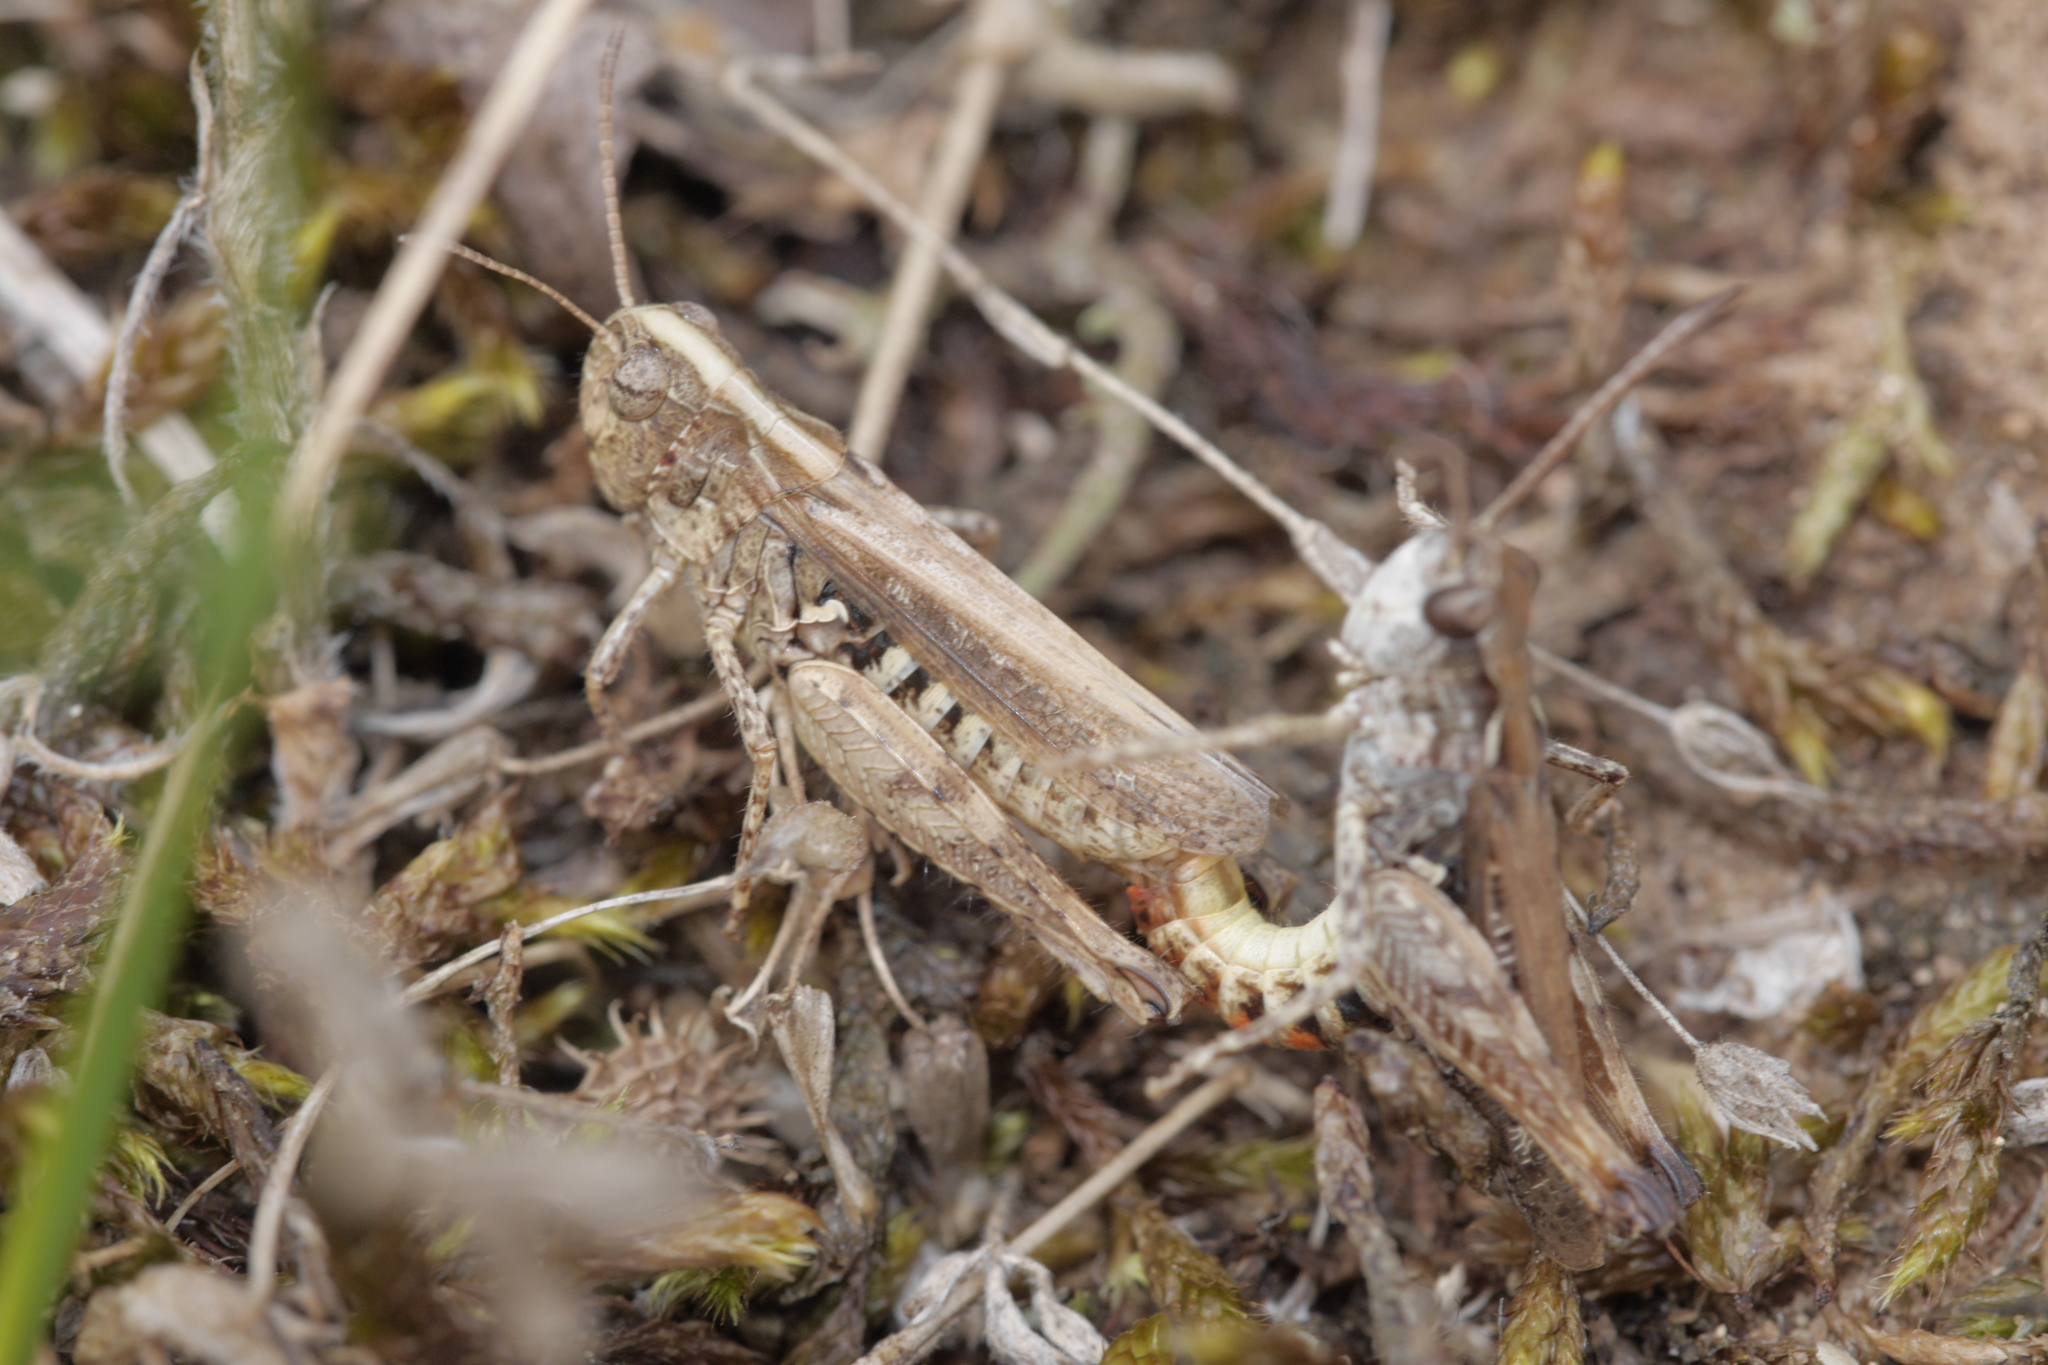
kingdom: Animalia
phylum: Arthropoda
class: Insecta
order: Orthoptera
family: Acrididae
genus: Myrmeleotettix
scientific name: Myrmeleotettix maculatus
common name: Mottled grasshopper
